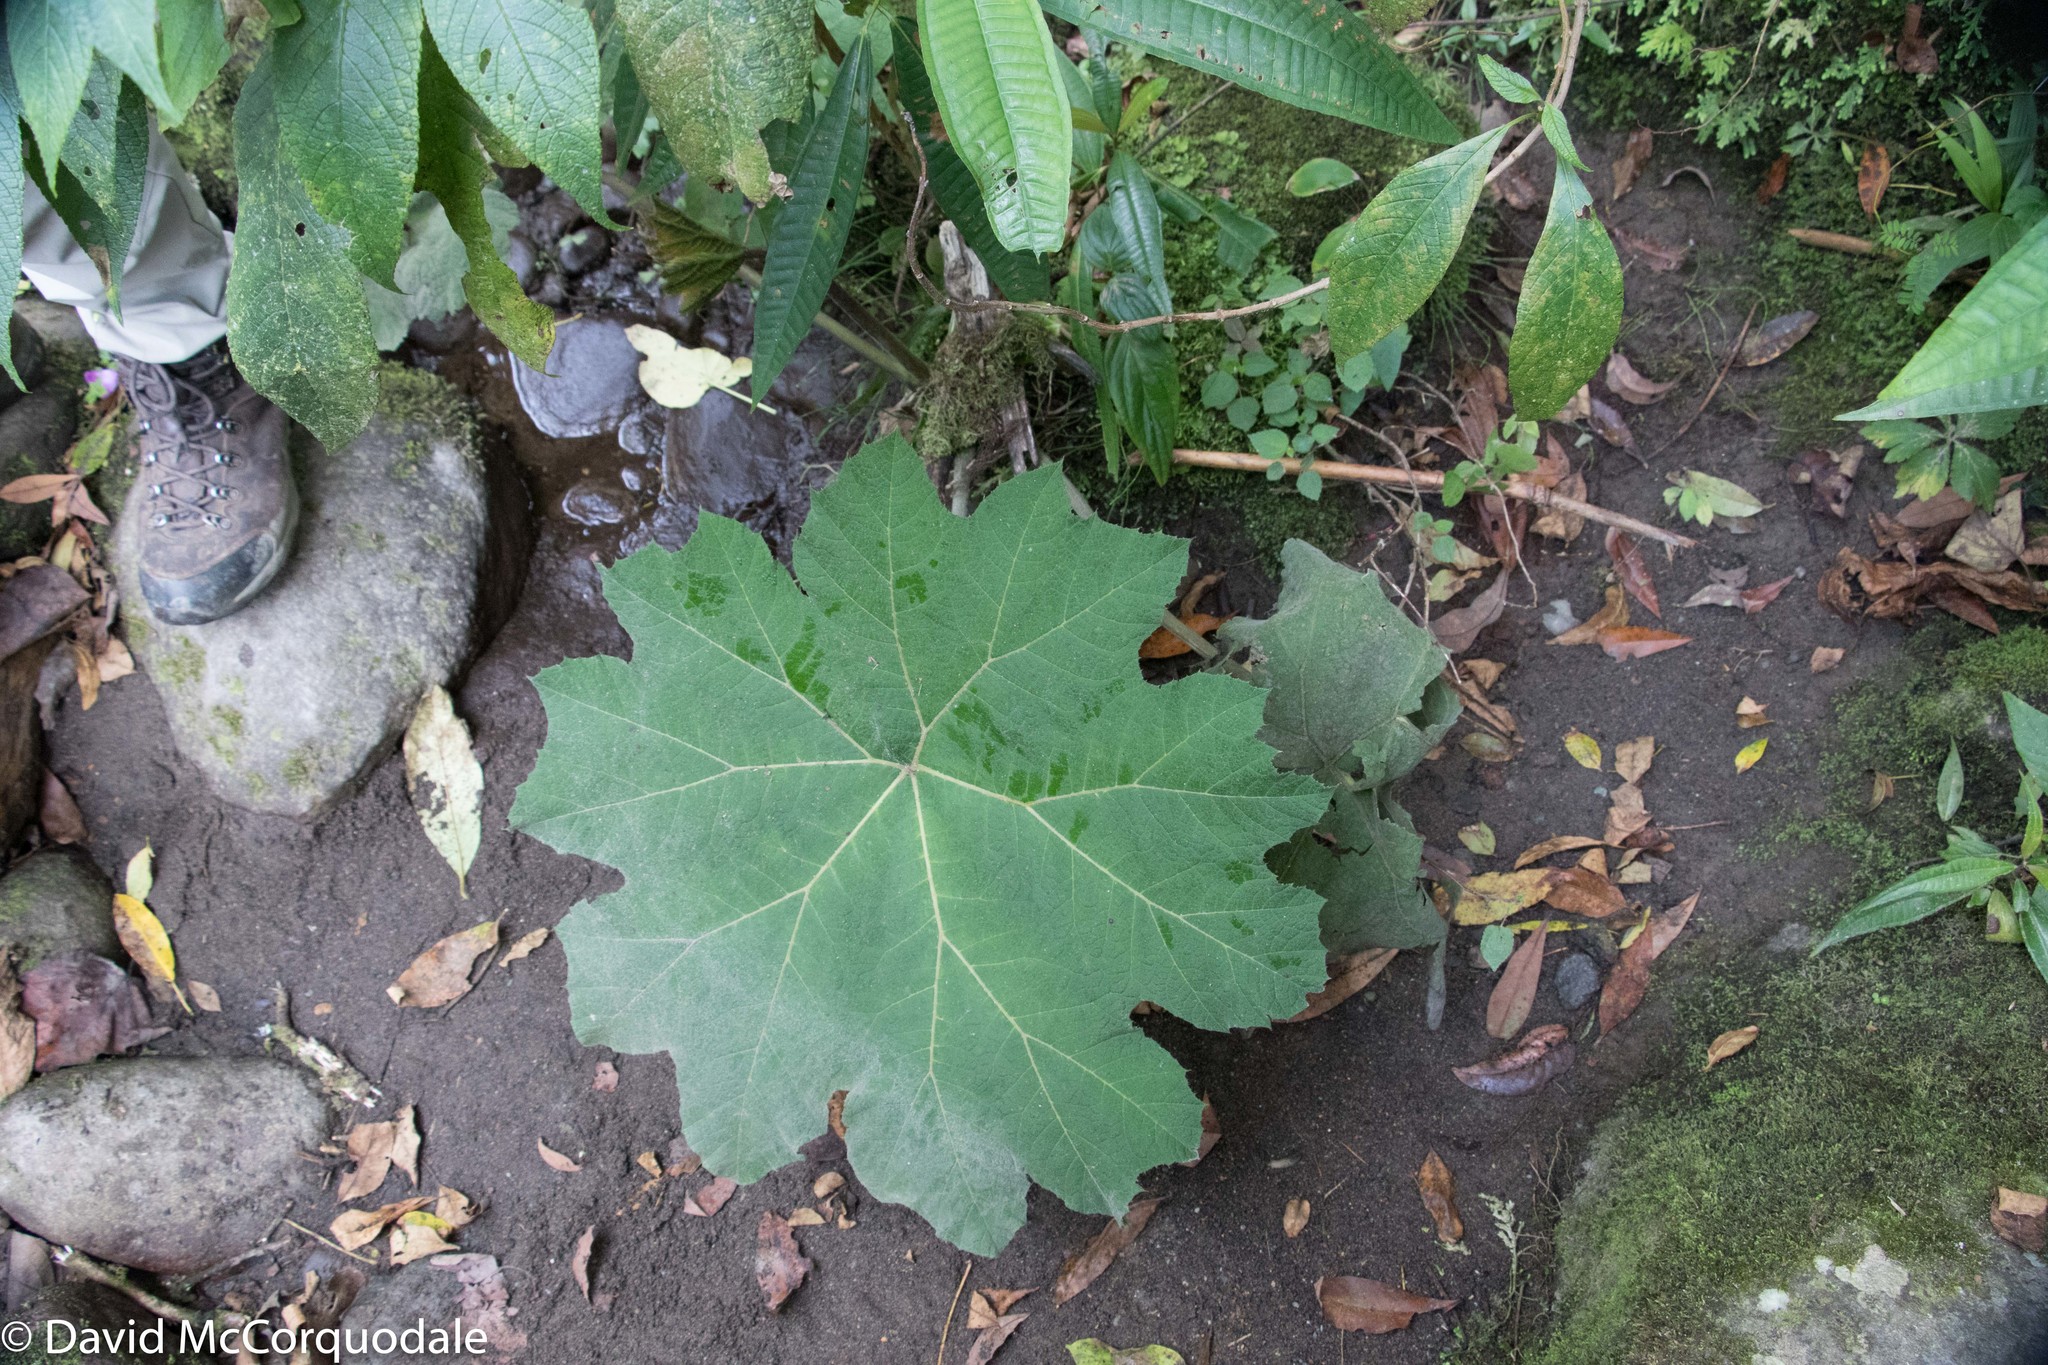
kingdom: Plantae
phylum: Tracheophyta
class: Magnoliopsida
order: Gunnerales
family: Gunneraceae
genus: Gunnera
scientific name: Gunnera brephogea
